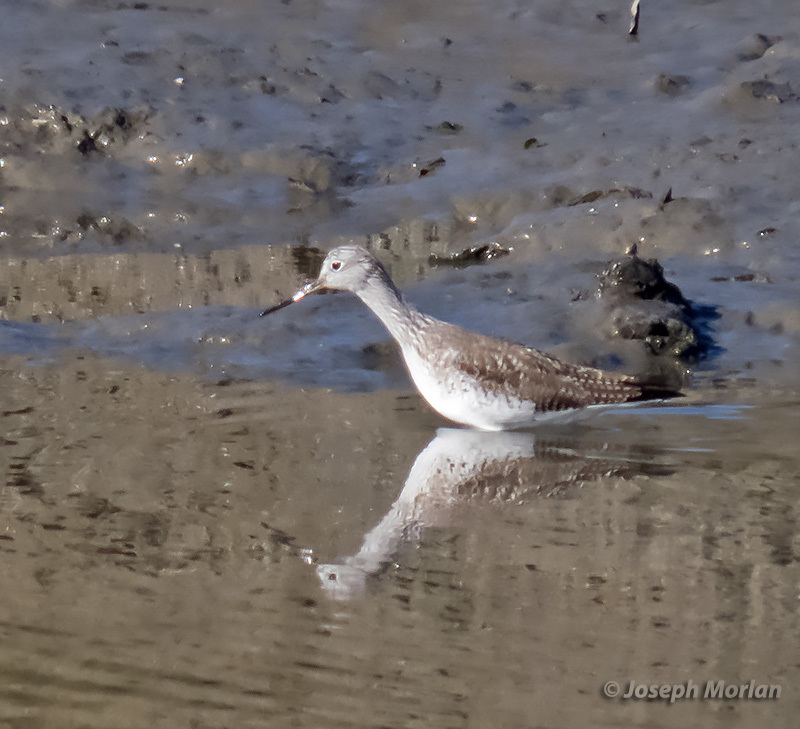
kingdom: Animalia
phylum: Chordata
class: Aves
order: Charadriiformes
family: Scolopacidae
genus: Tringa
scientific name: Tringa melanoleuca
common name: Greater yellowlegs
